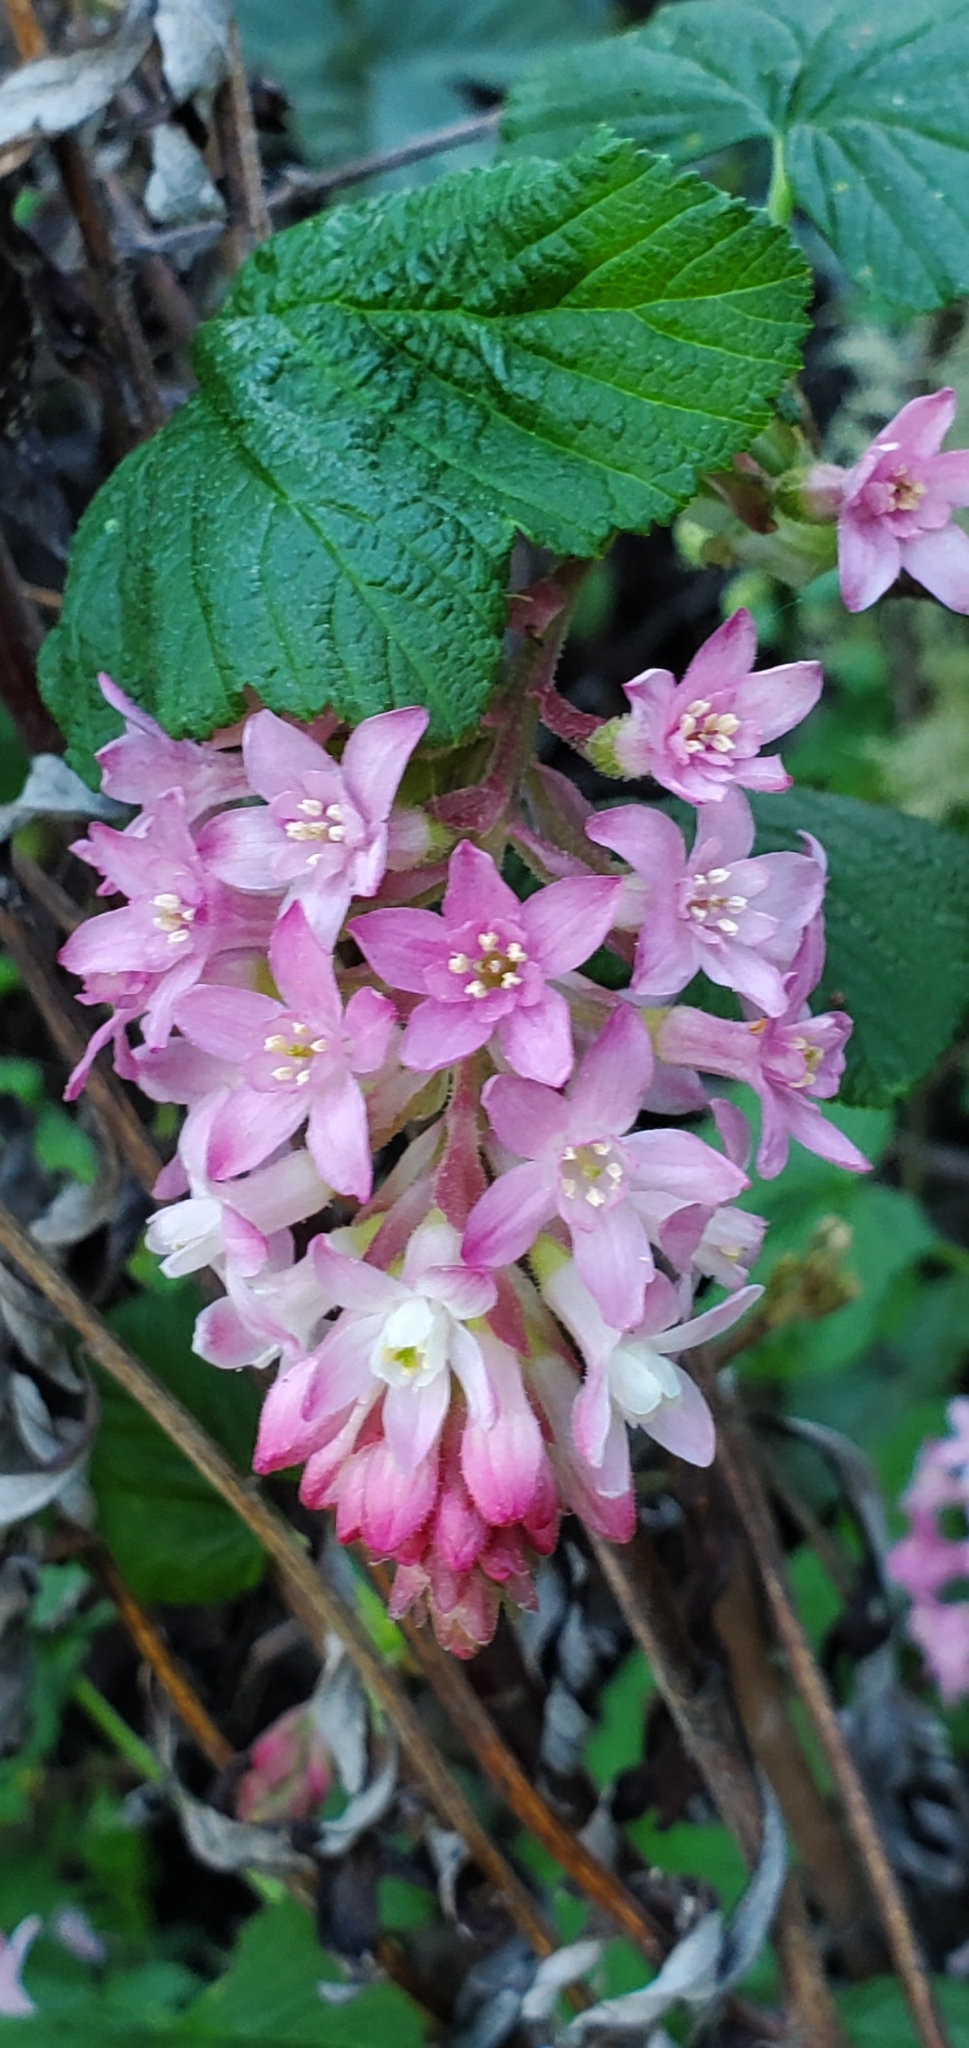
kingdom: Plantae
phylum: Tracheophyta
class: Magnoliopsida
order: Saxifragales
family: Grossulariaceae
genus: Ribes
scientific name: Ribes sanguineum
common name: Flowering currant
